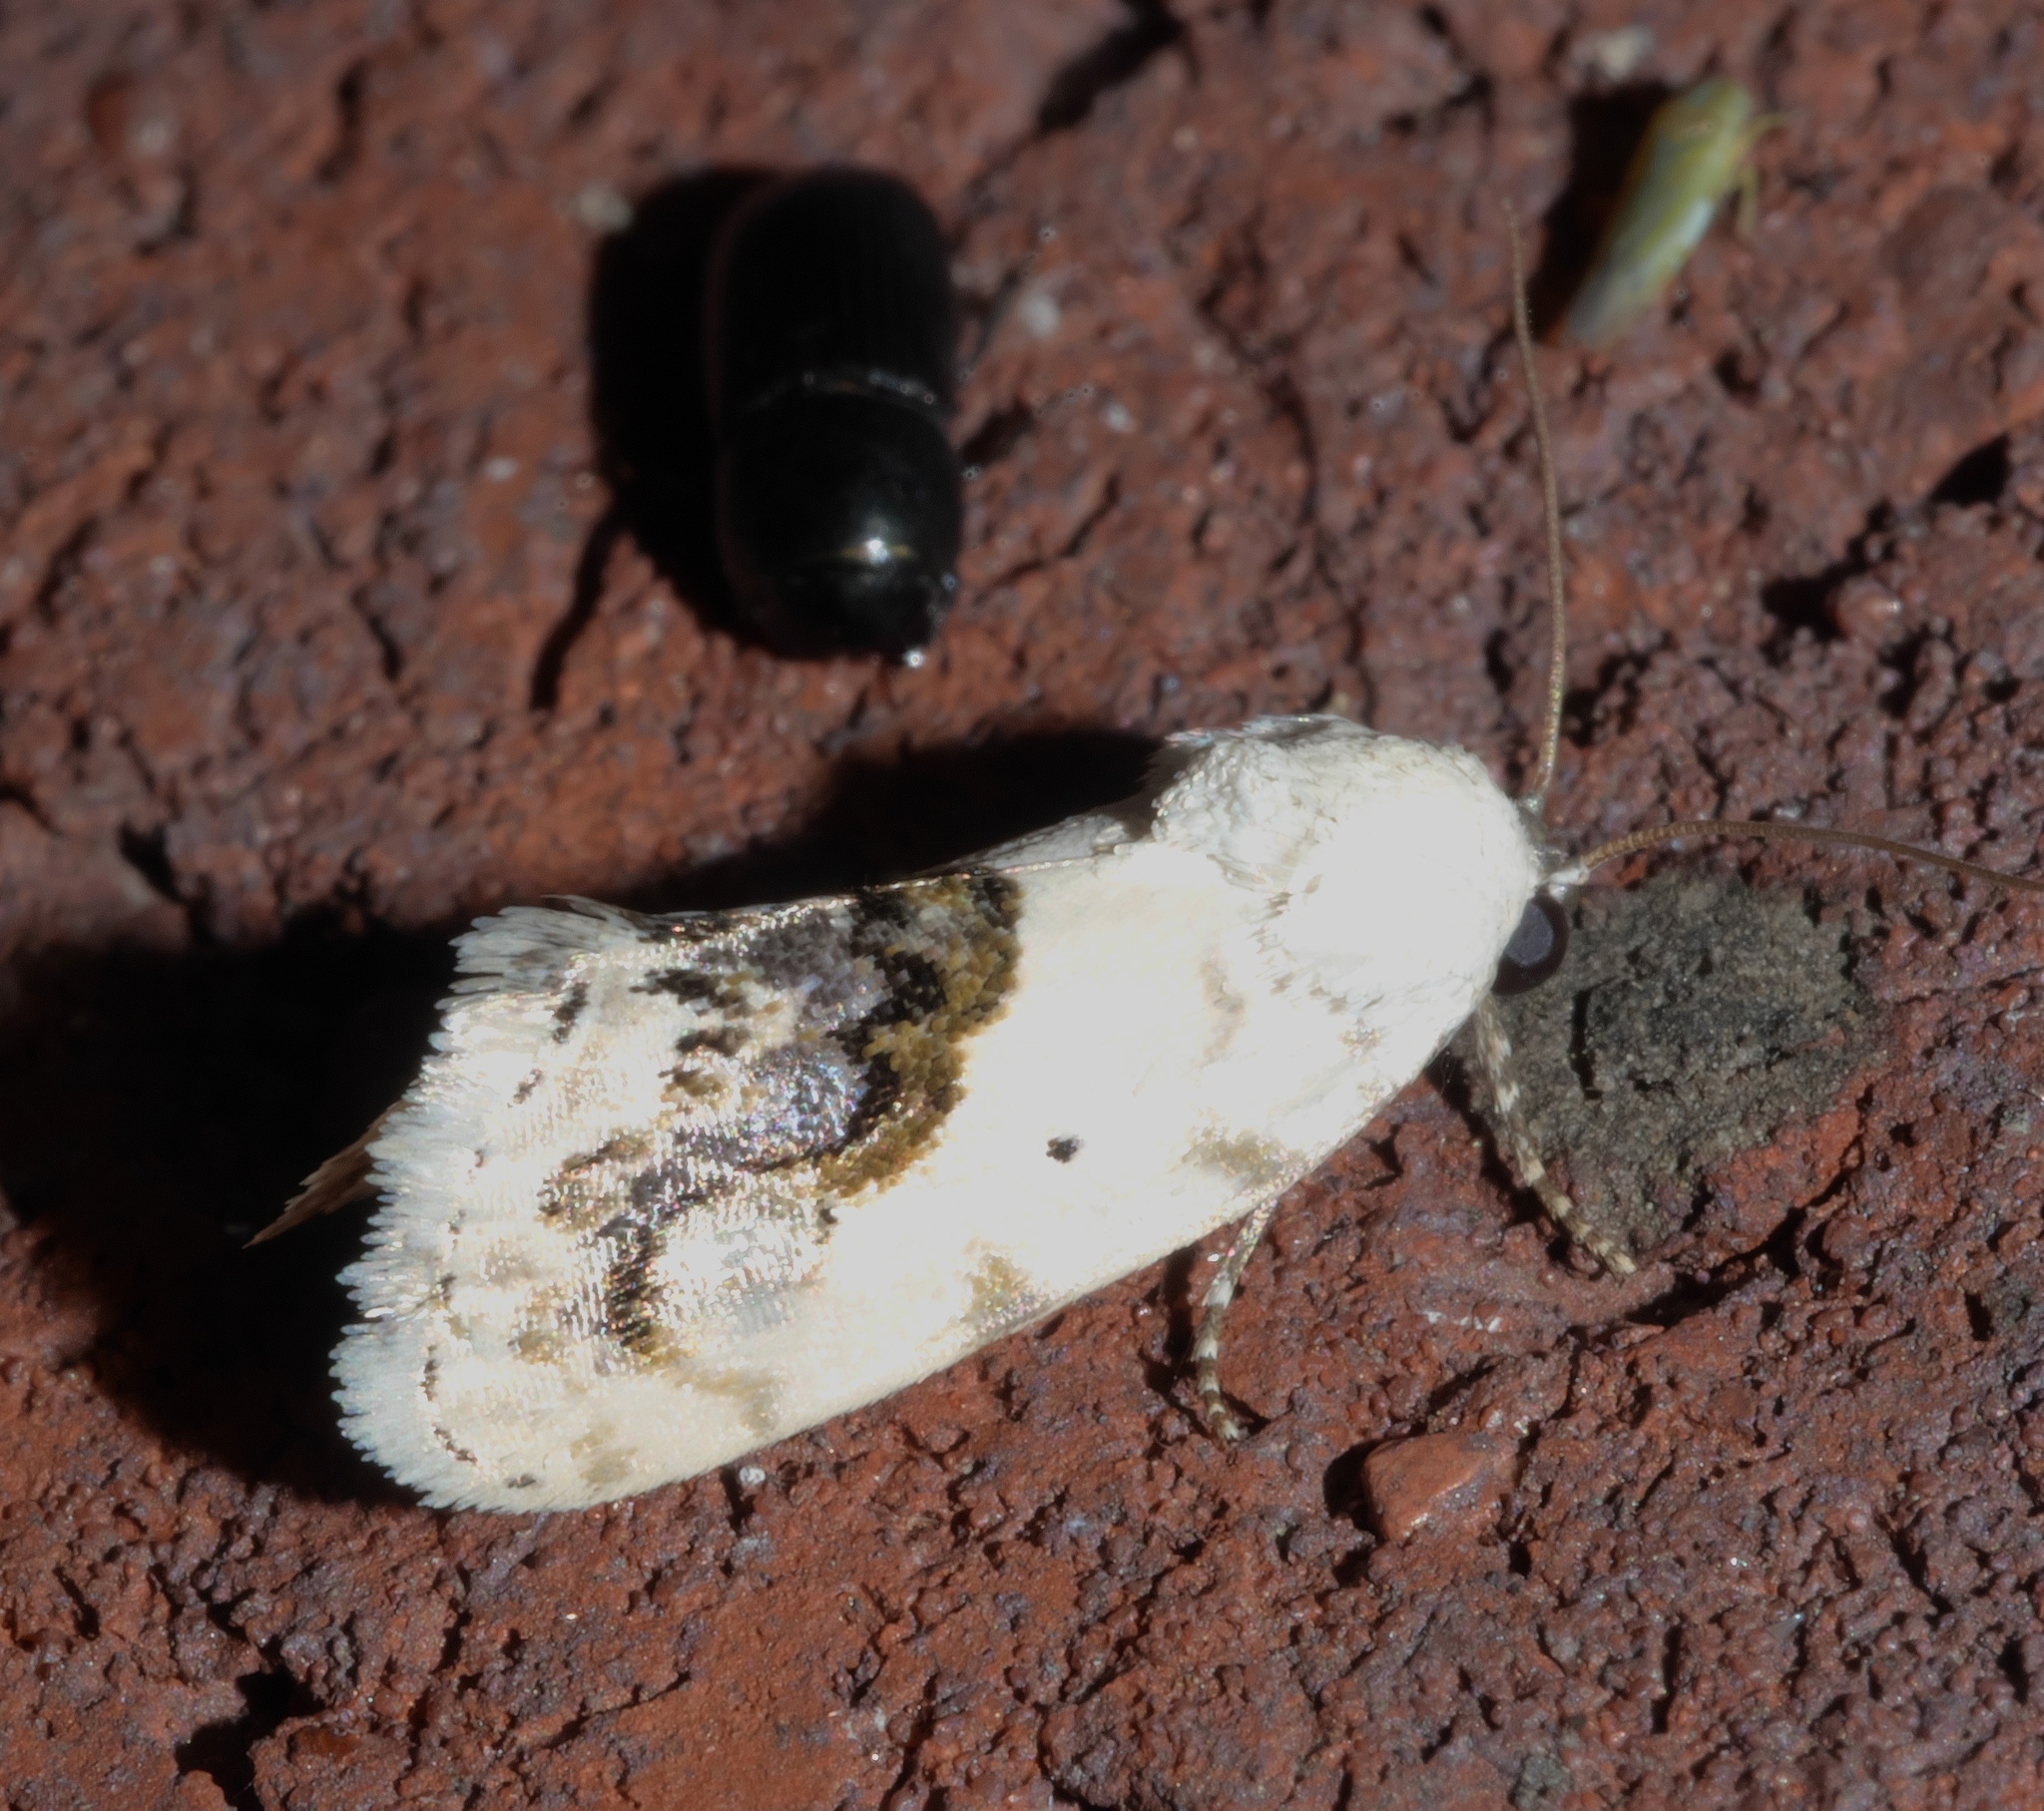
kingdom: Animalia
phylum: Arthropoda
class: Insecta
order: Lepidoptera
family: Noctuidae
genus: Acontia
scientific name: Acontia erastrioides
